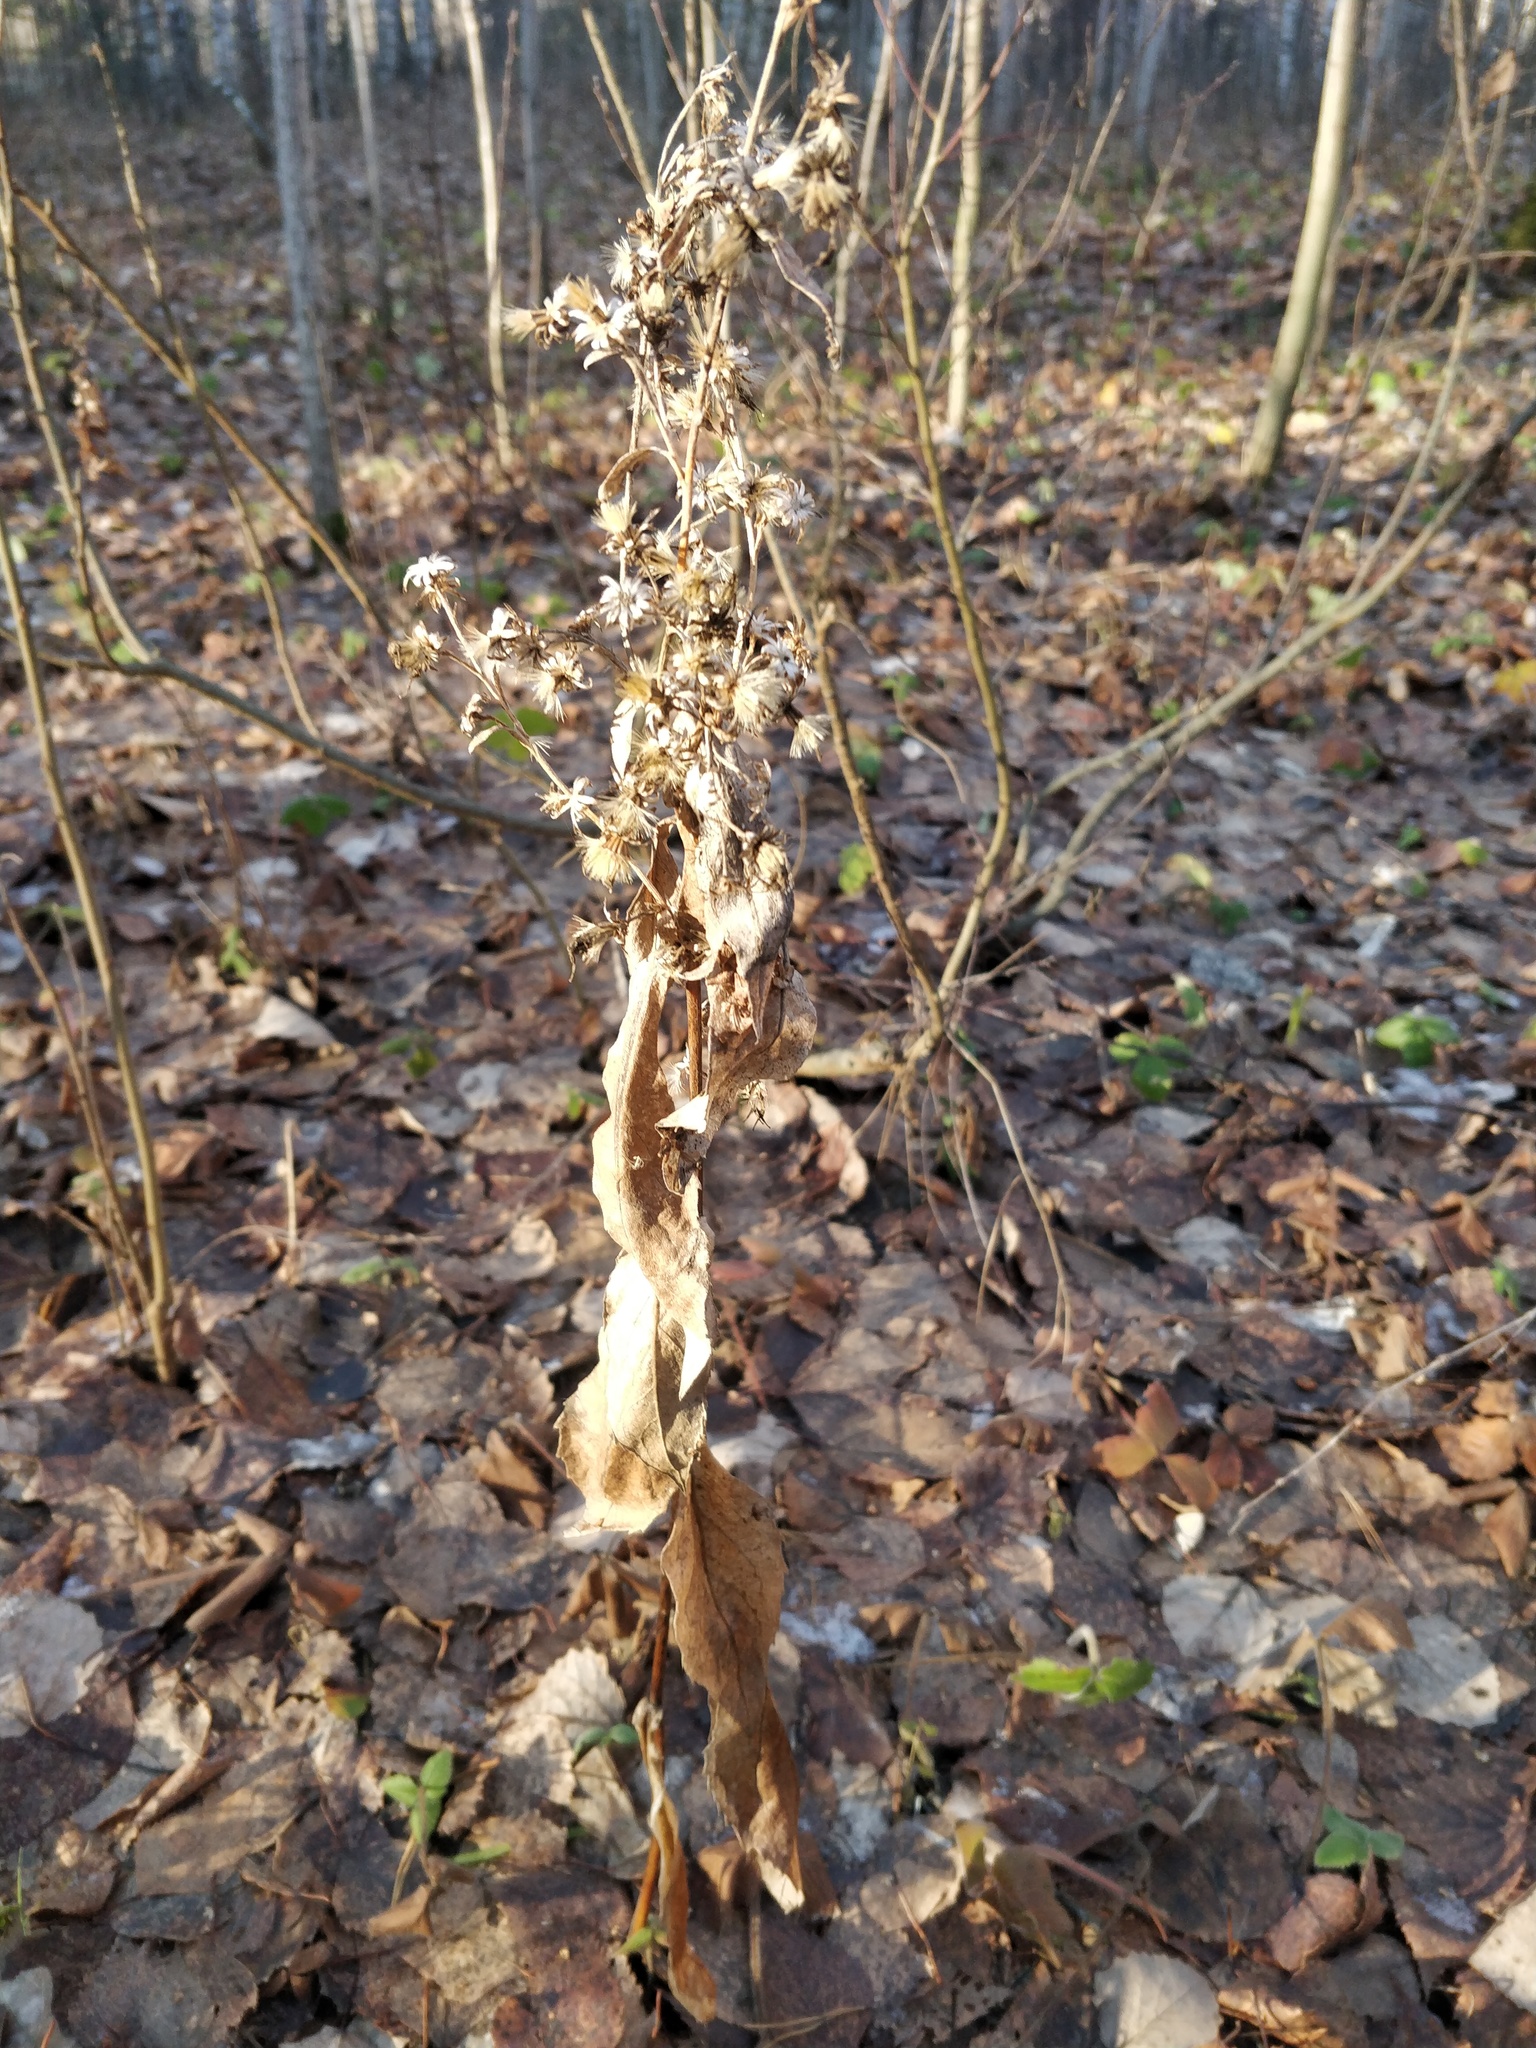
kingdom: Plantae
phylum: Tracheophyta
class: Magnoliopsida
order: Asterales
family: Asteraceae
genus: Solidago
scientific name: Solidago virgaurea
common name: Goldenrod
